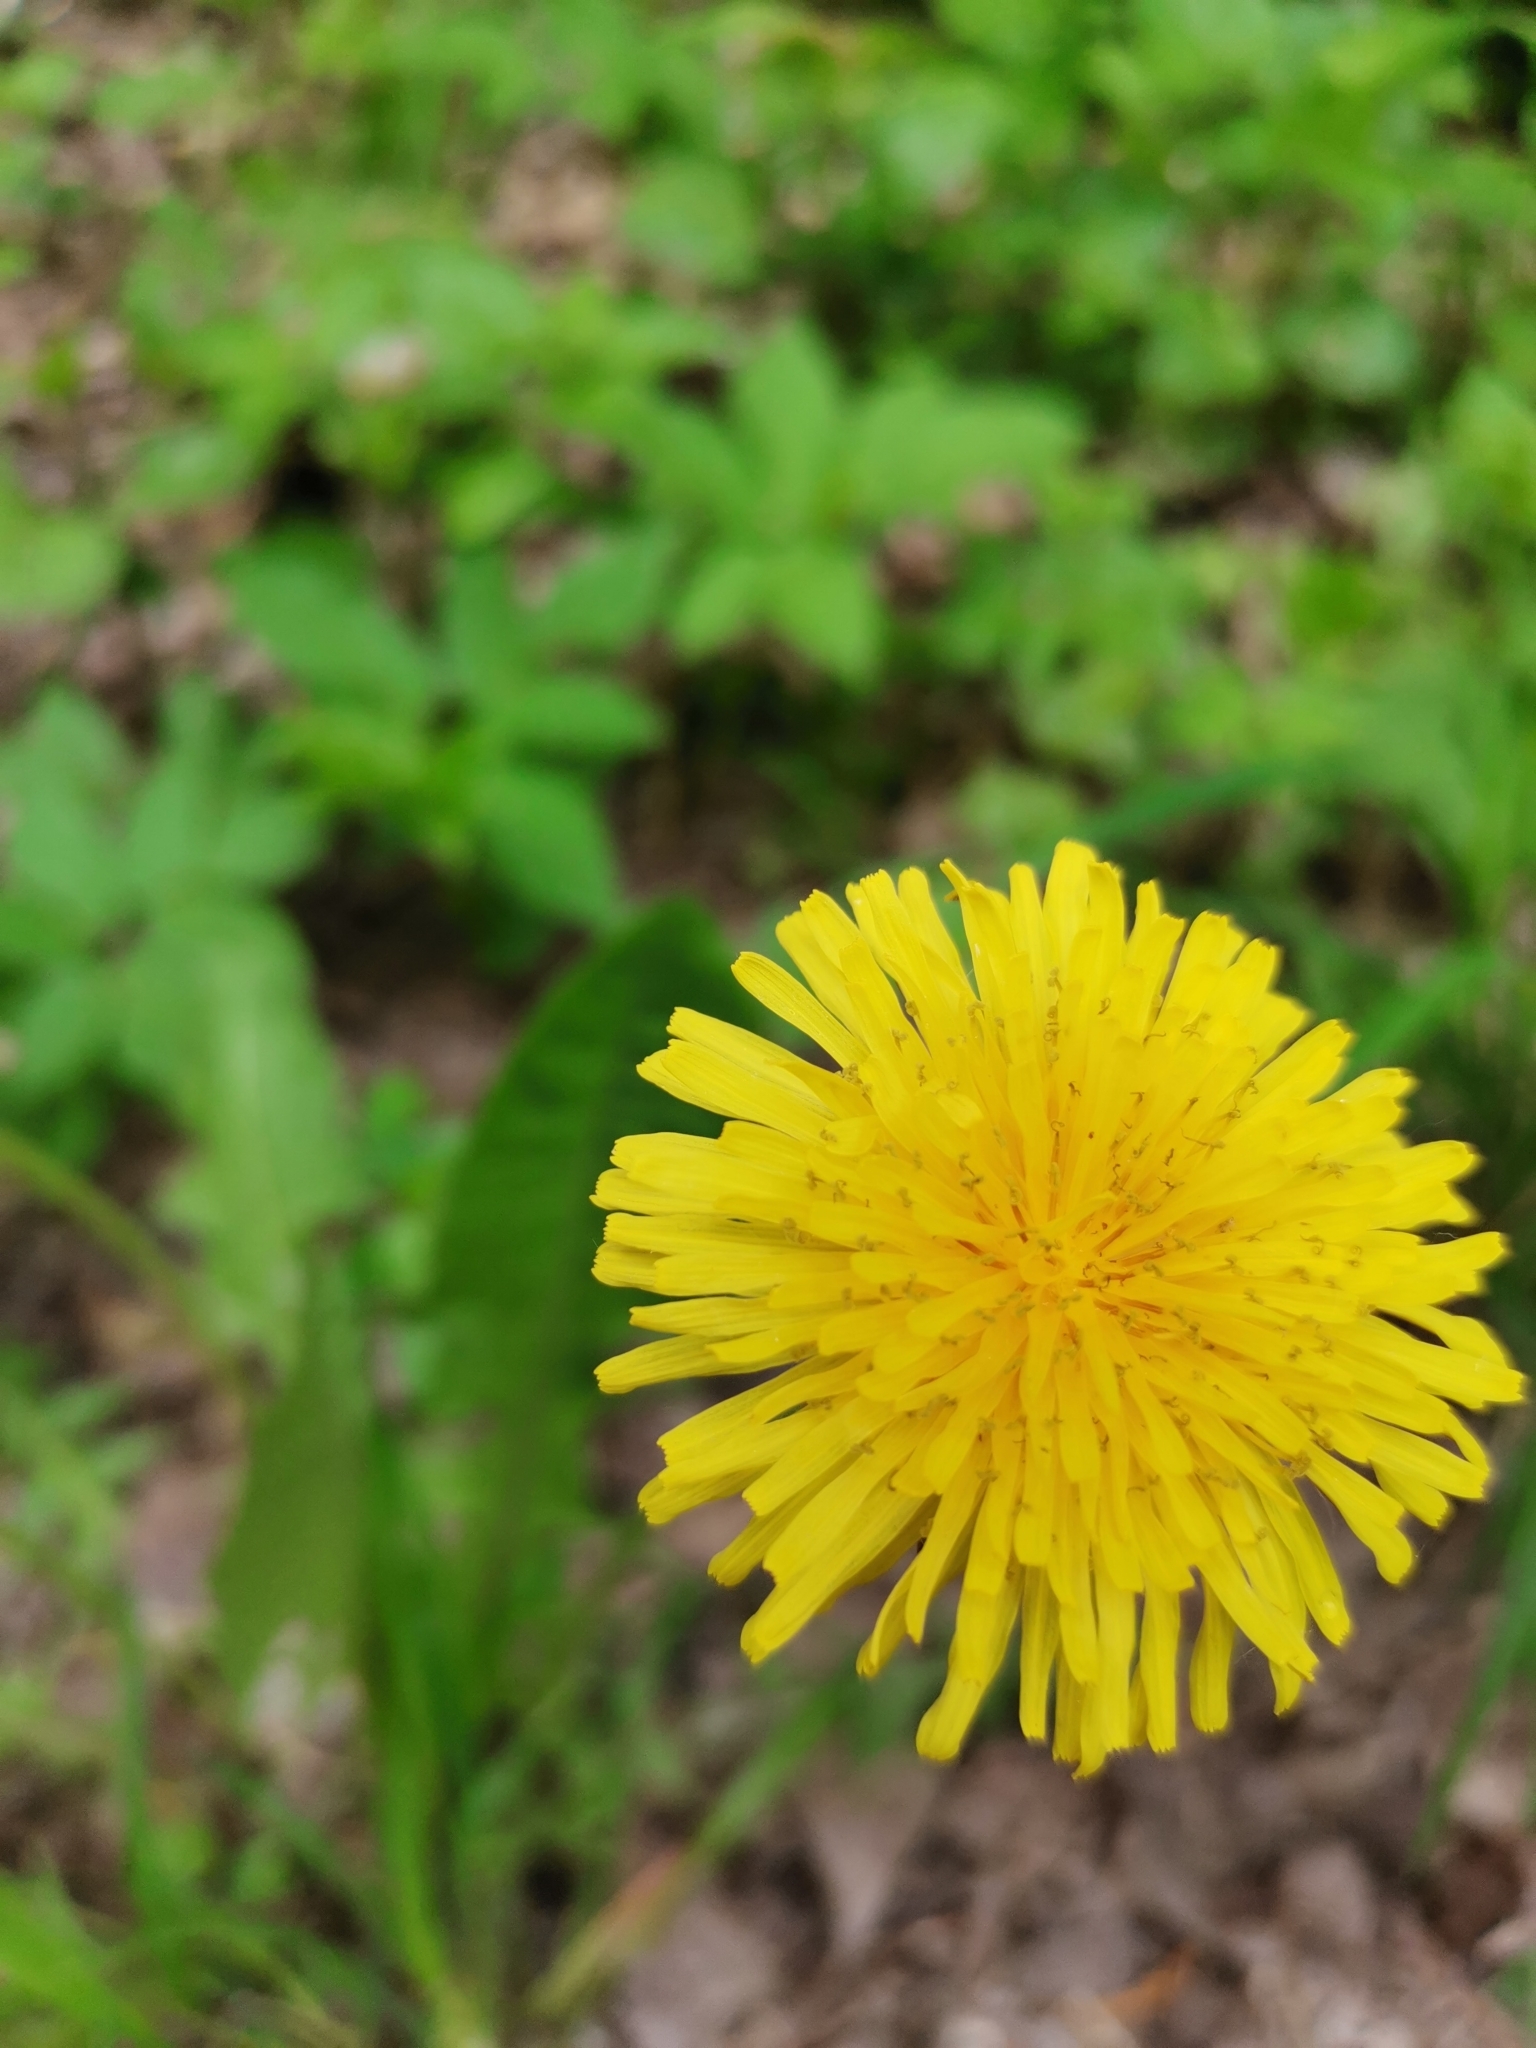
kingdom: Plantae
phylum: Tracheophyta
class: Magnoliopsida
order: Asterales
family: Asteraceae
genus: Taraxacum
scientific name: Taraxacum
